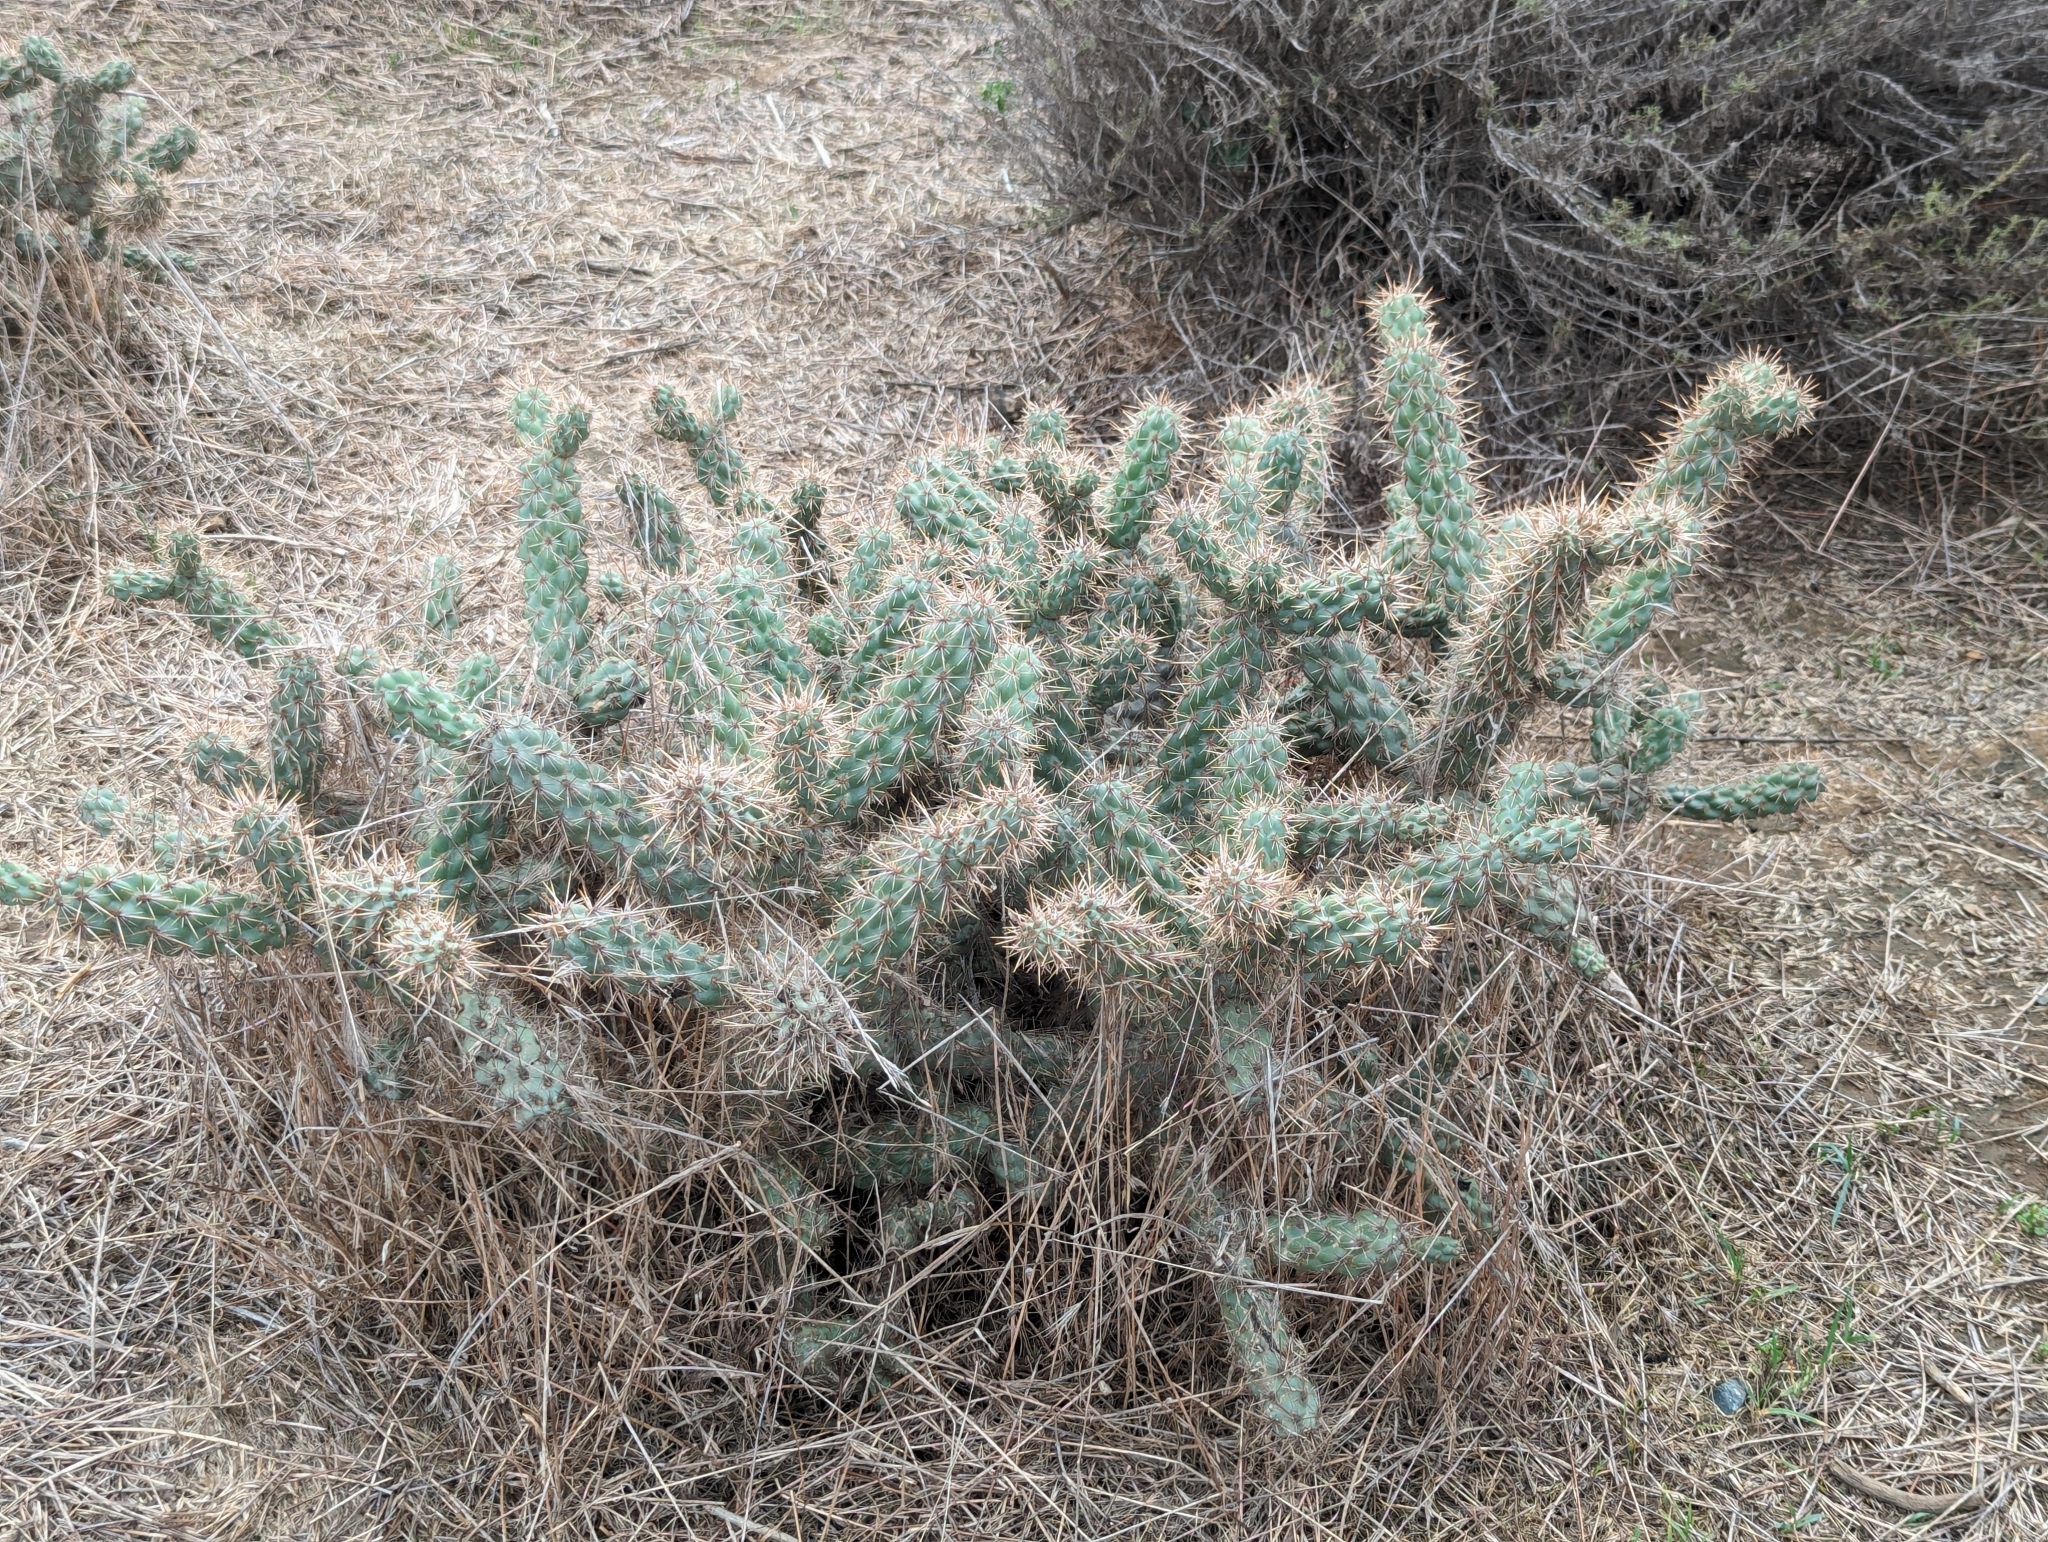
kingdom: Plantae
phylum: Tracheophyta
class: Magnoliopsida
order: Caryophyllales
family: Cactaceae
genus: Cylindropuntia
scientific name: Cylindropuntia prolifera
